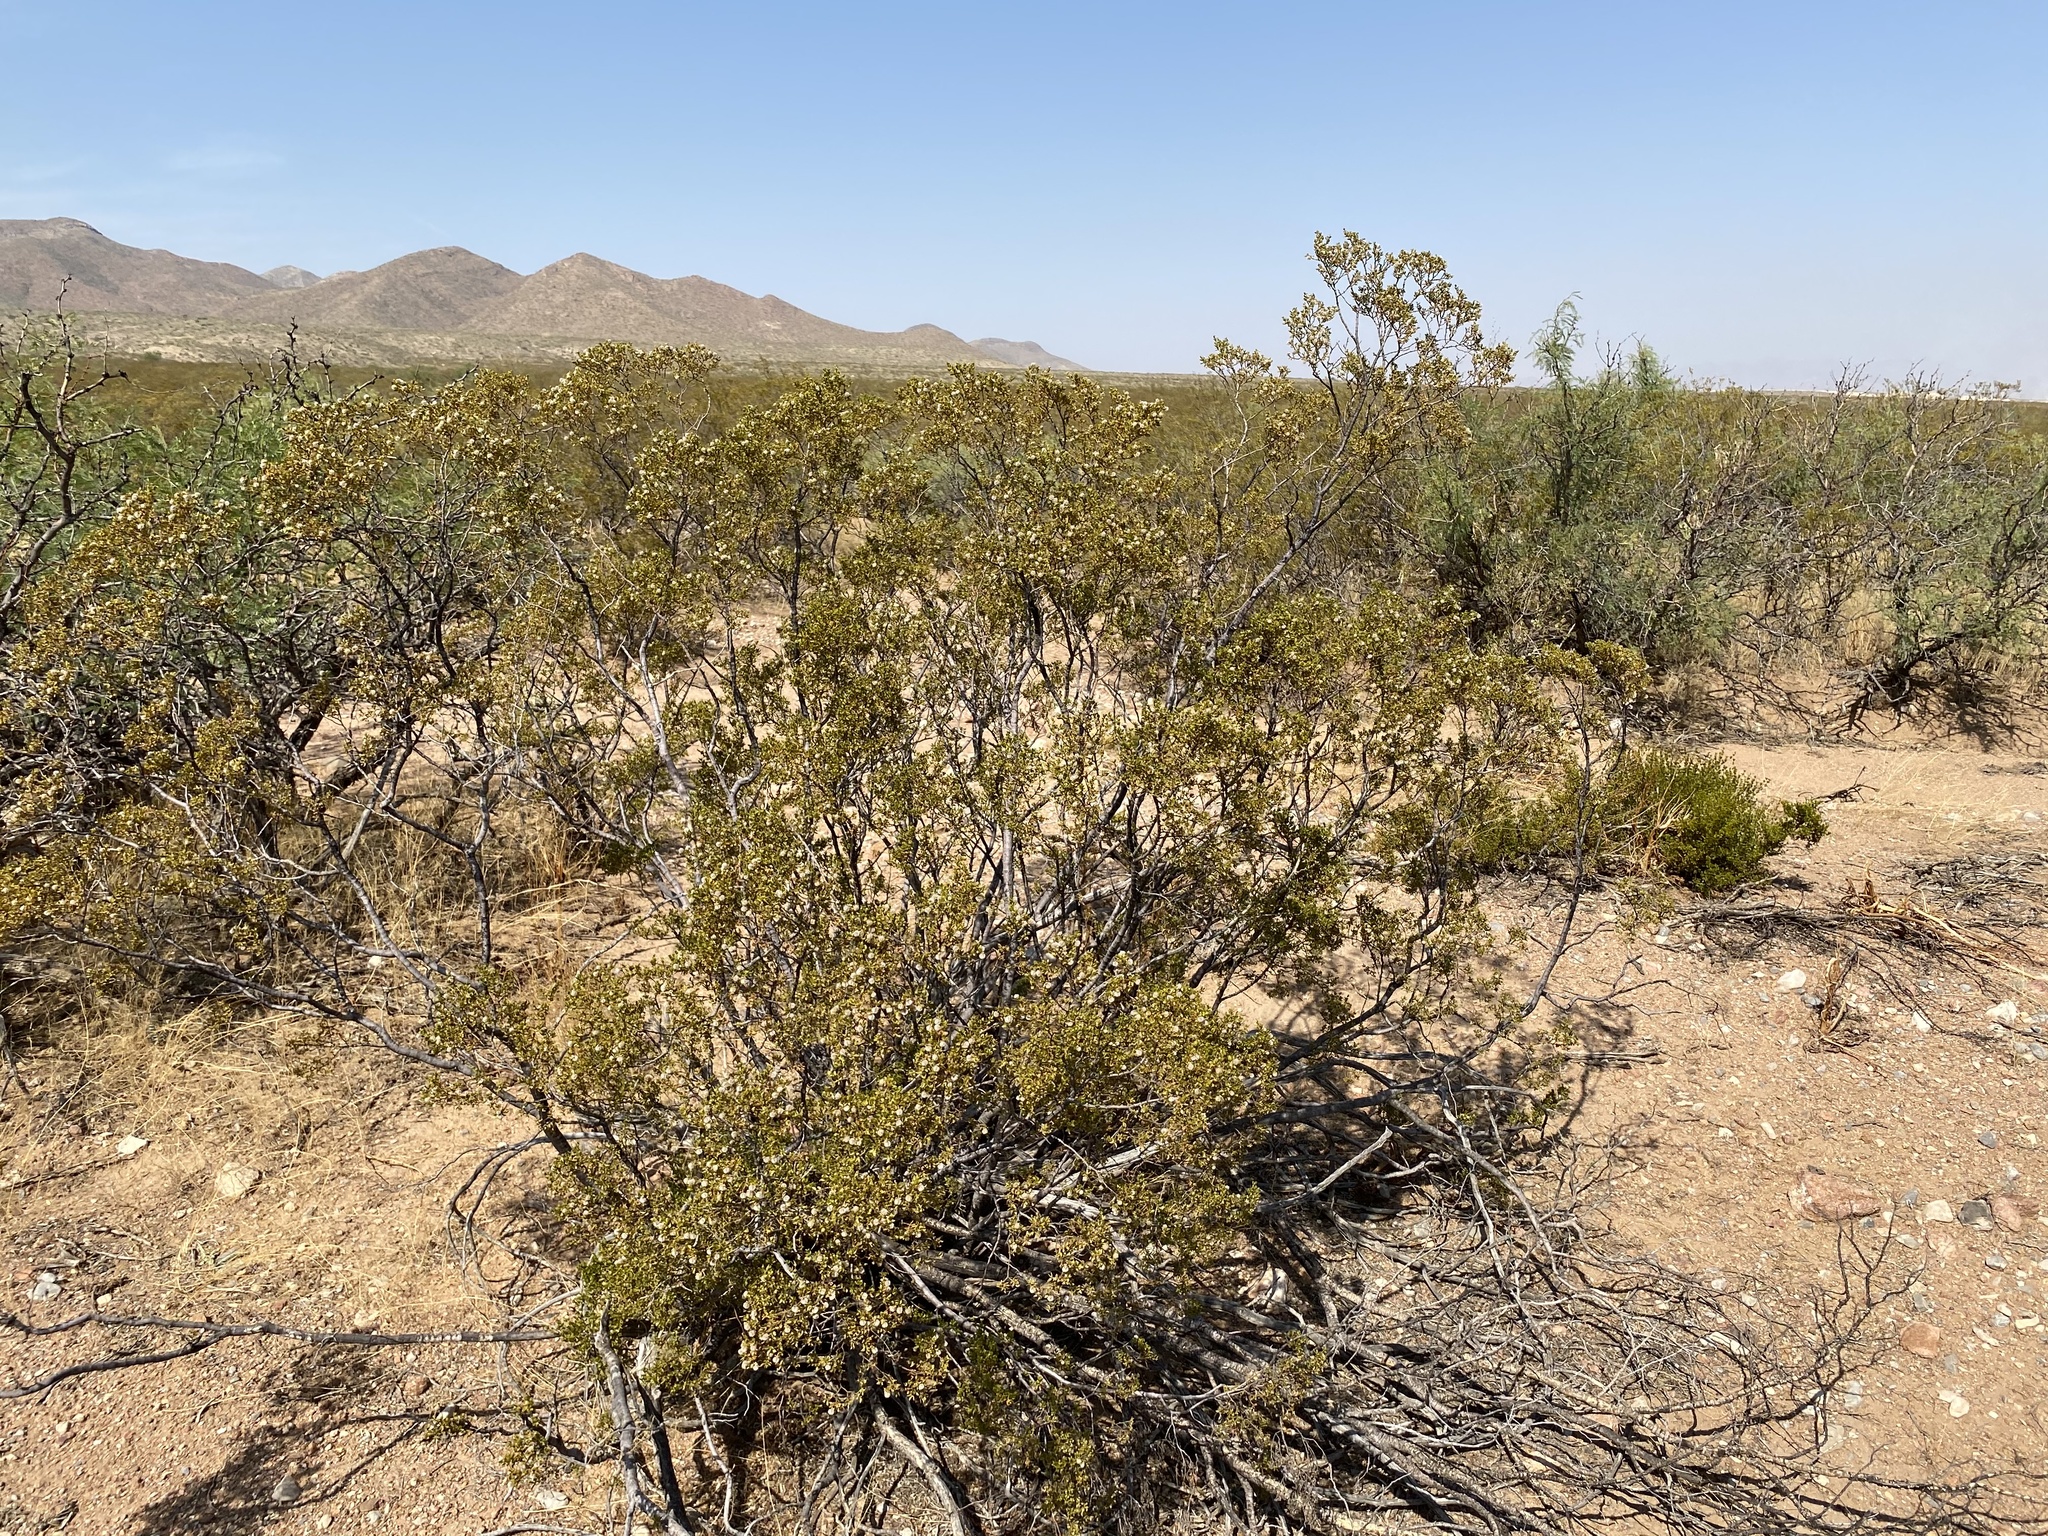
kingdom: Plantae
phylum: Tracheophyta
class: Magnoliopsida
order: Zygophyllales
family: Zygophyllaceae
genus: Larrea
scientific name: Larrea tridentata
